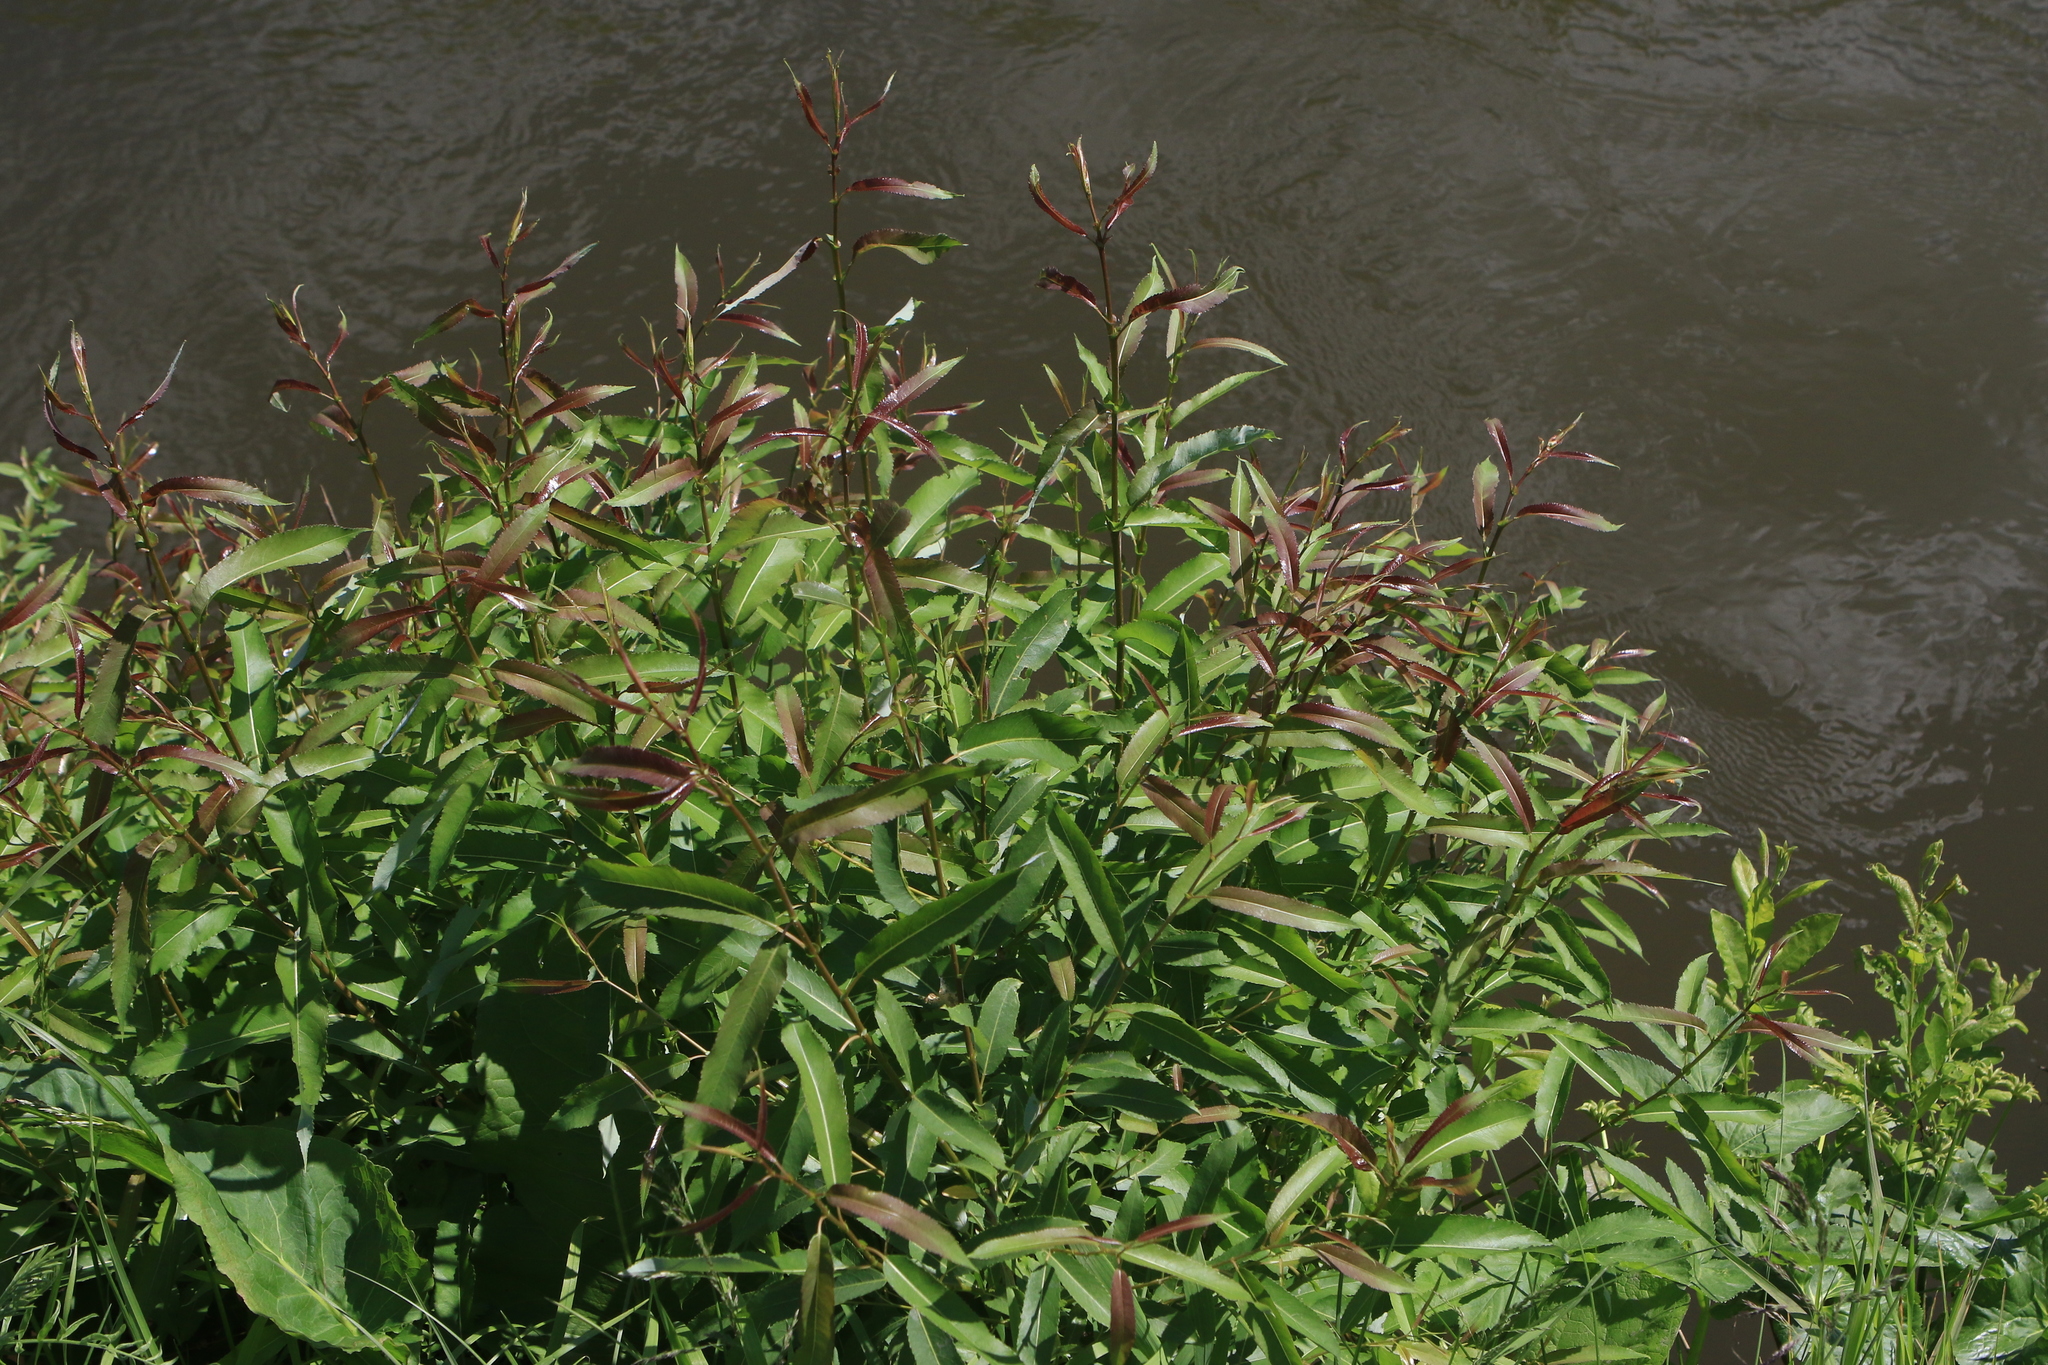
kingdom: Plantae
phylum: Tracheophyta
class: Magnoliopsida
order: Malpighiales
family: Salicaceae
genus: Salix
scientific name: Salix triandra
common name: Almond willow
